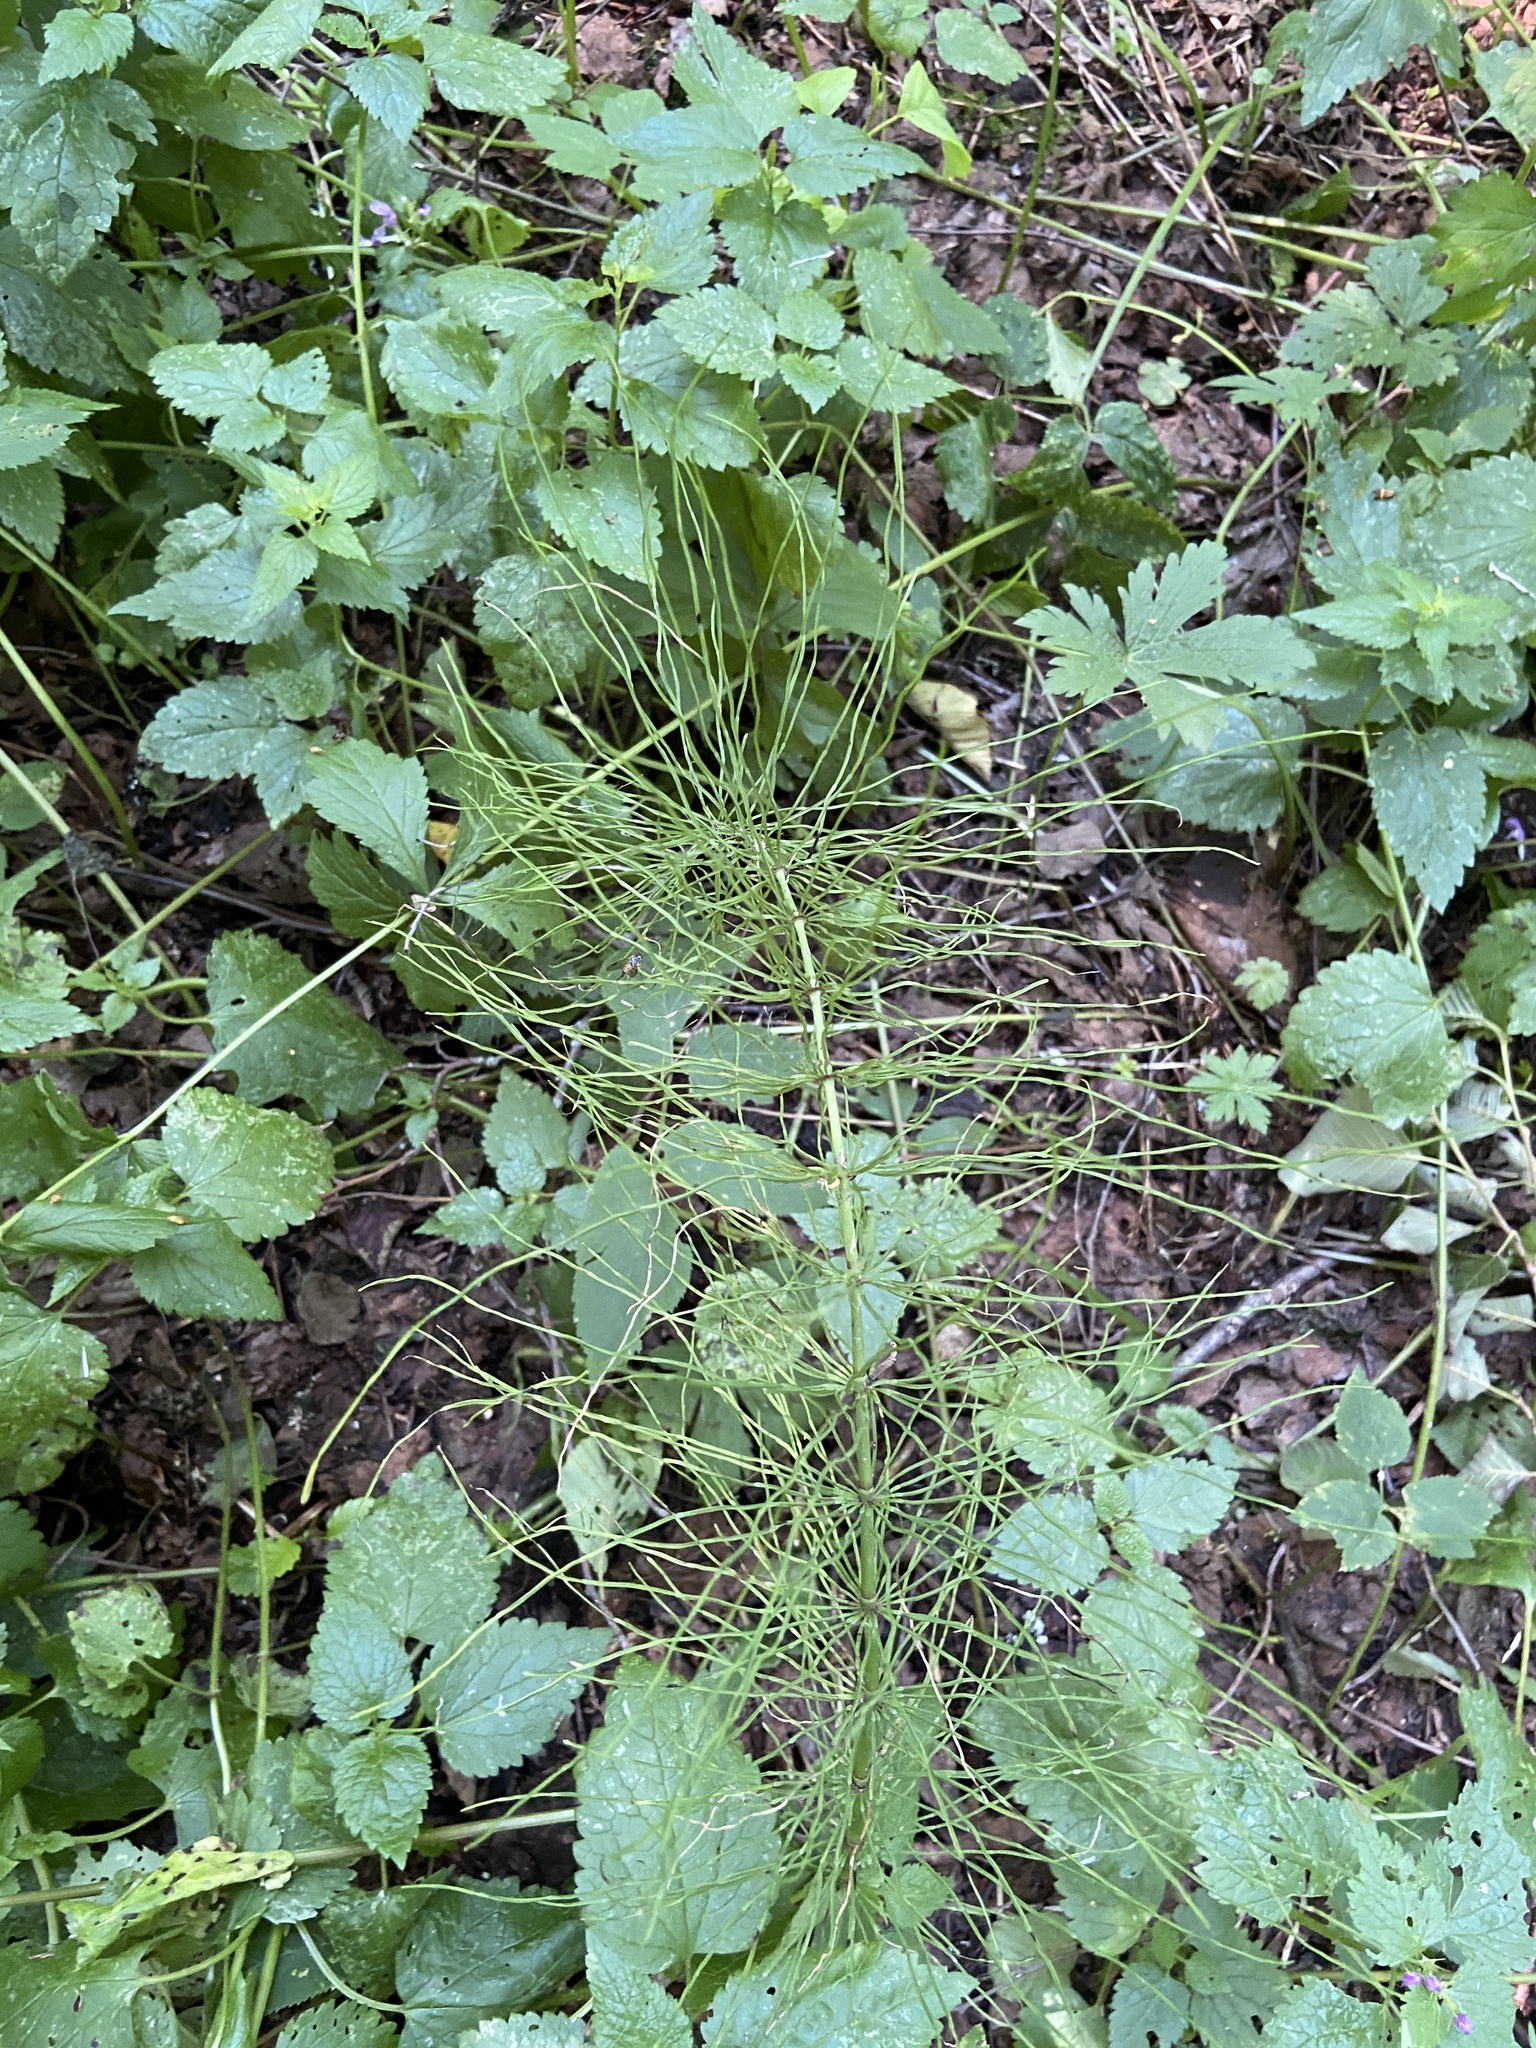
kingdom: Plantae
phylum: Tracheophyta
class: Polypodiopsida
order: Equisetales
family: Equisetaceae
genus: Equisetum
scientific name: Equisetum pratense
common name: Meadow horsetail
